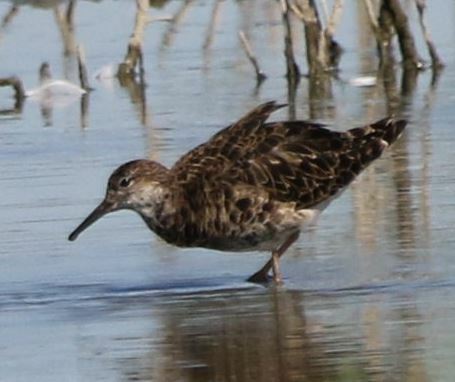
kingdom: Animalia
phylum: Chordata
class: Aves
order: Charadriiformes
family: Scolopacidae
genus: Calidris
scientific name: Calidris pugnax
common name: Ruff
